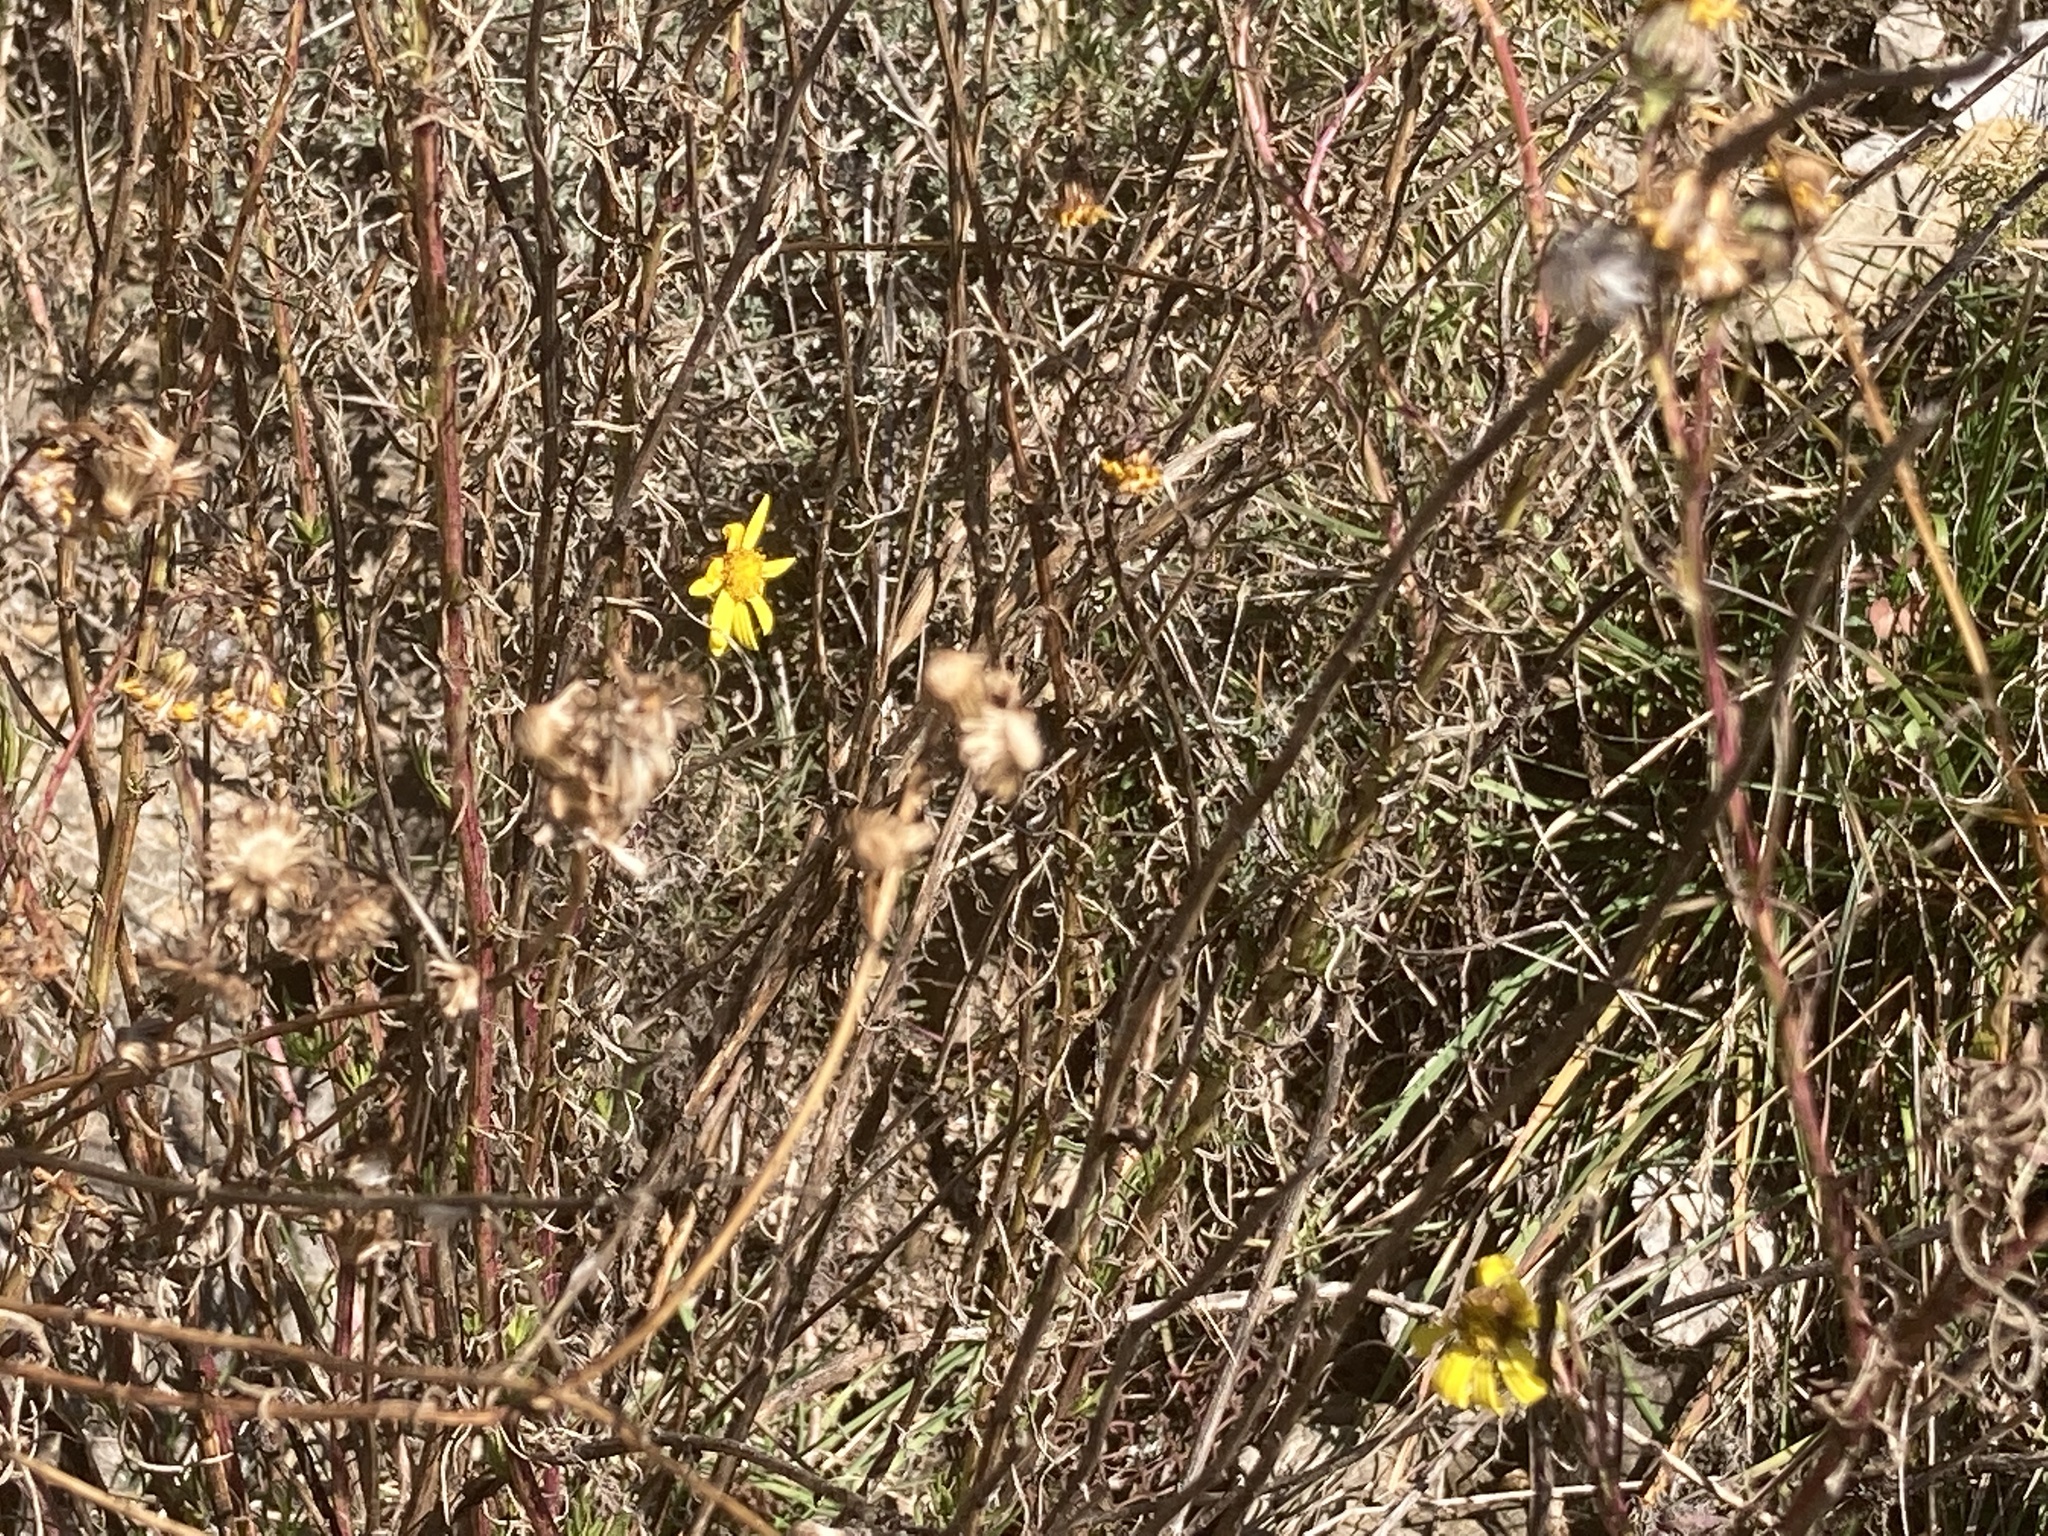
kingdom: Plantae
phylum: Tracheophyta
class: Magnoliopsida
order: Asterales
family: Asteraceae
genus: Senecio
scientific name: Senecio inaequidens
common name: Narrow-leaved ragwort
